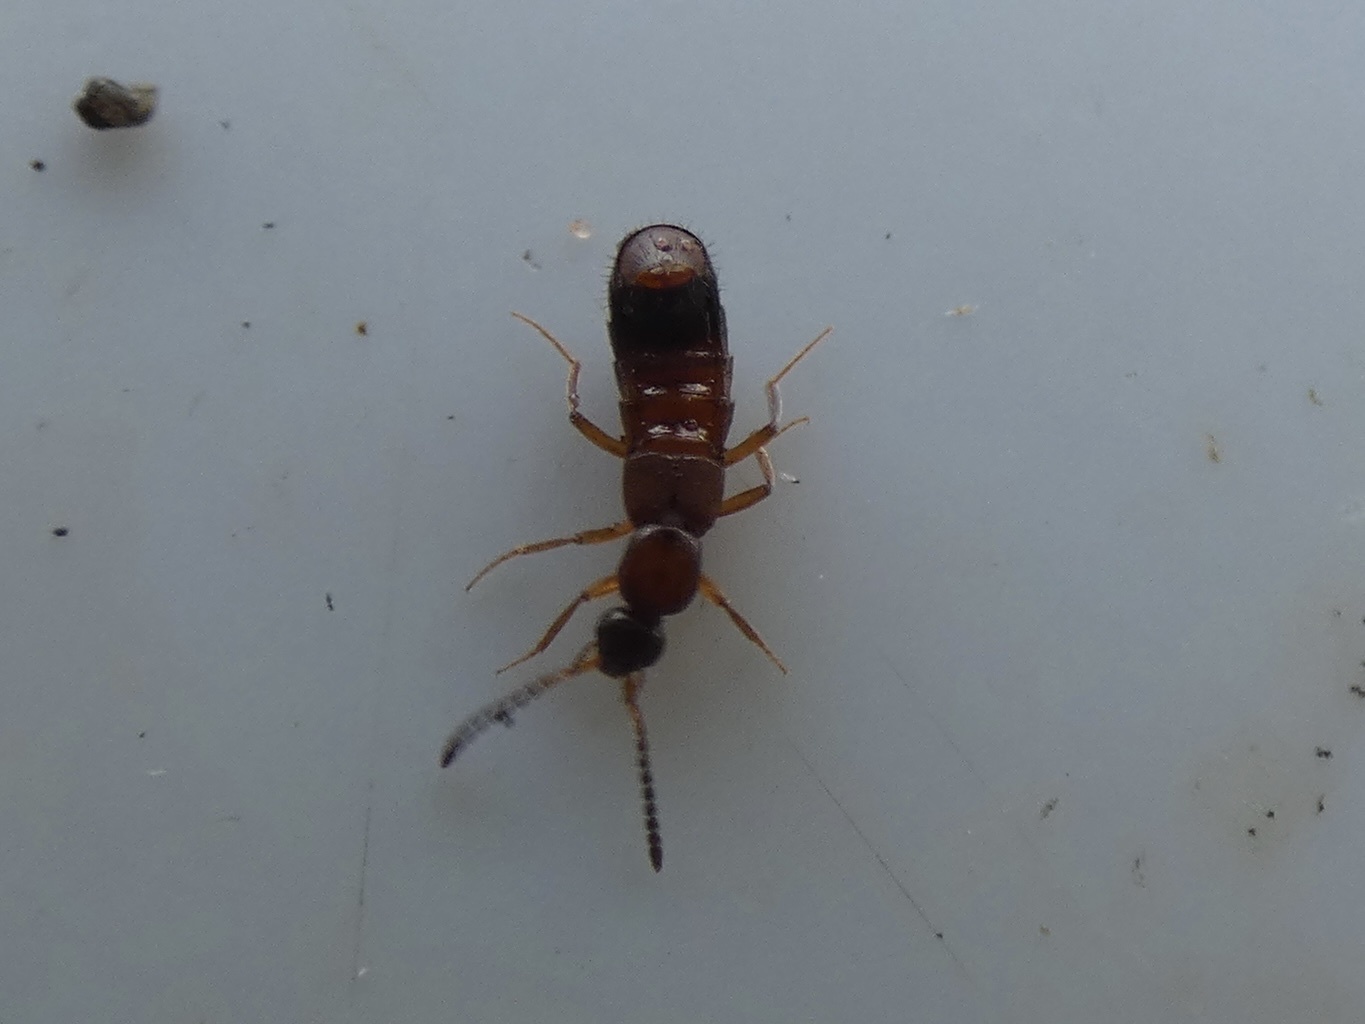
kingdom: Animalia
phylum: Arthropoda
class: Insecta
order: Coleoptera
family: Staphylinidae
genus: Drusilla
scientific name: Drusilla canaliculata
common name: Rove beetle
